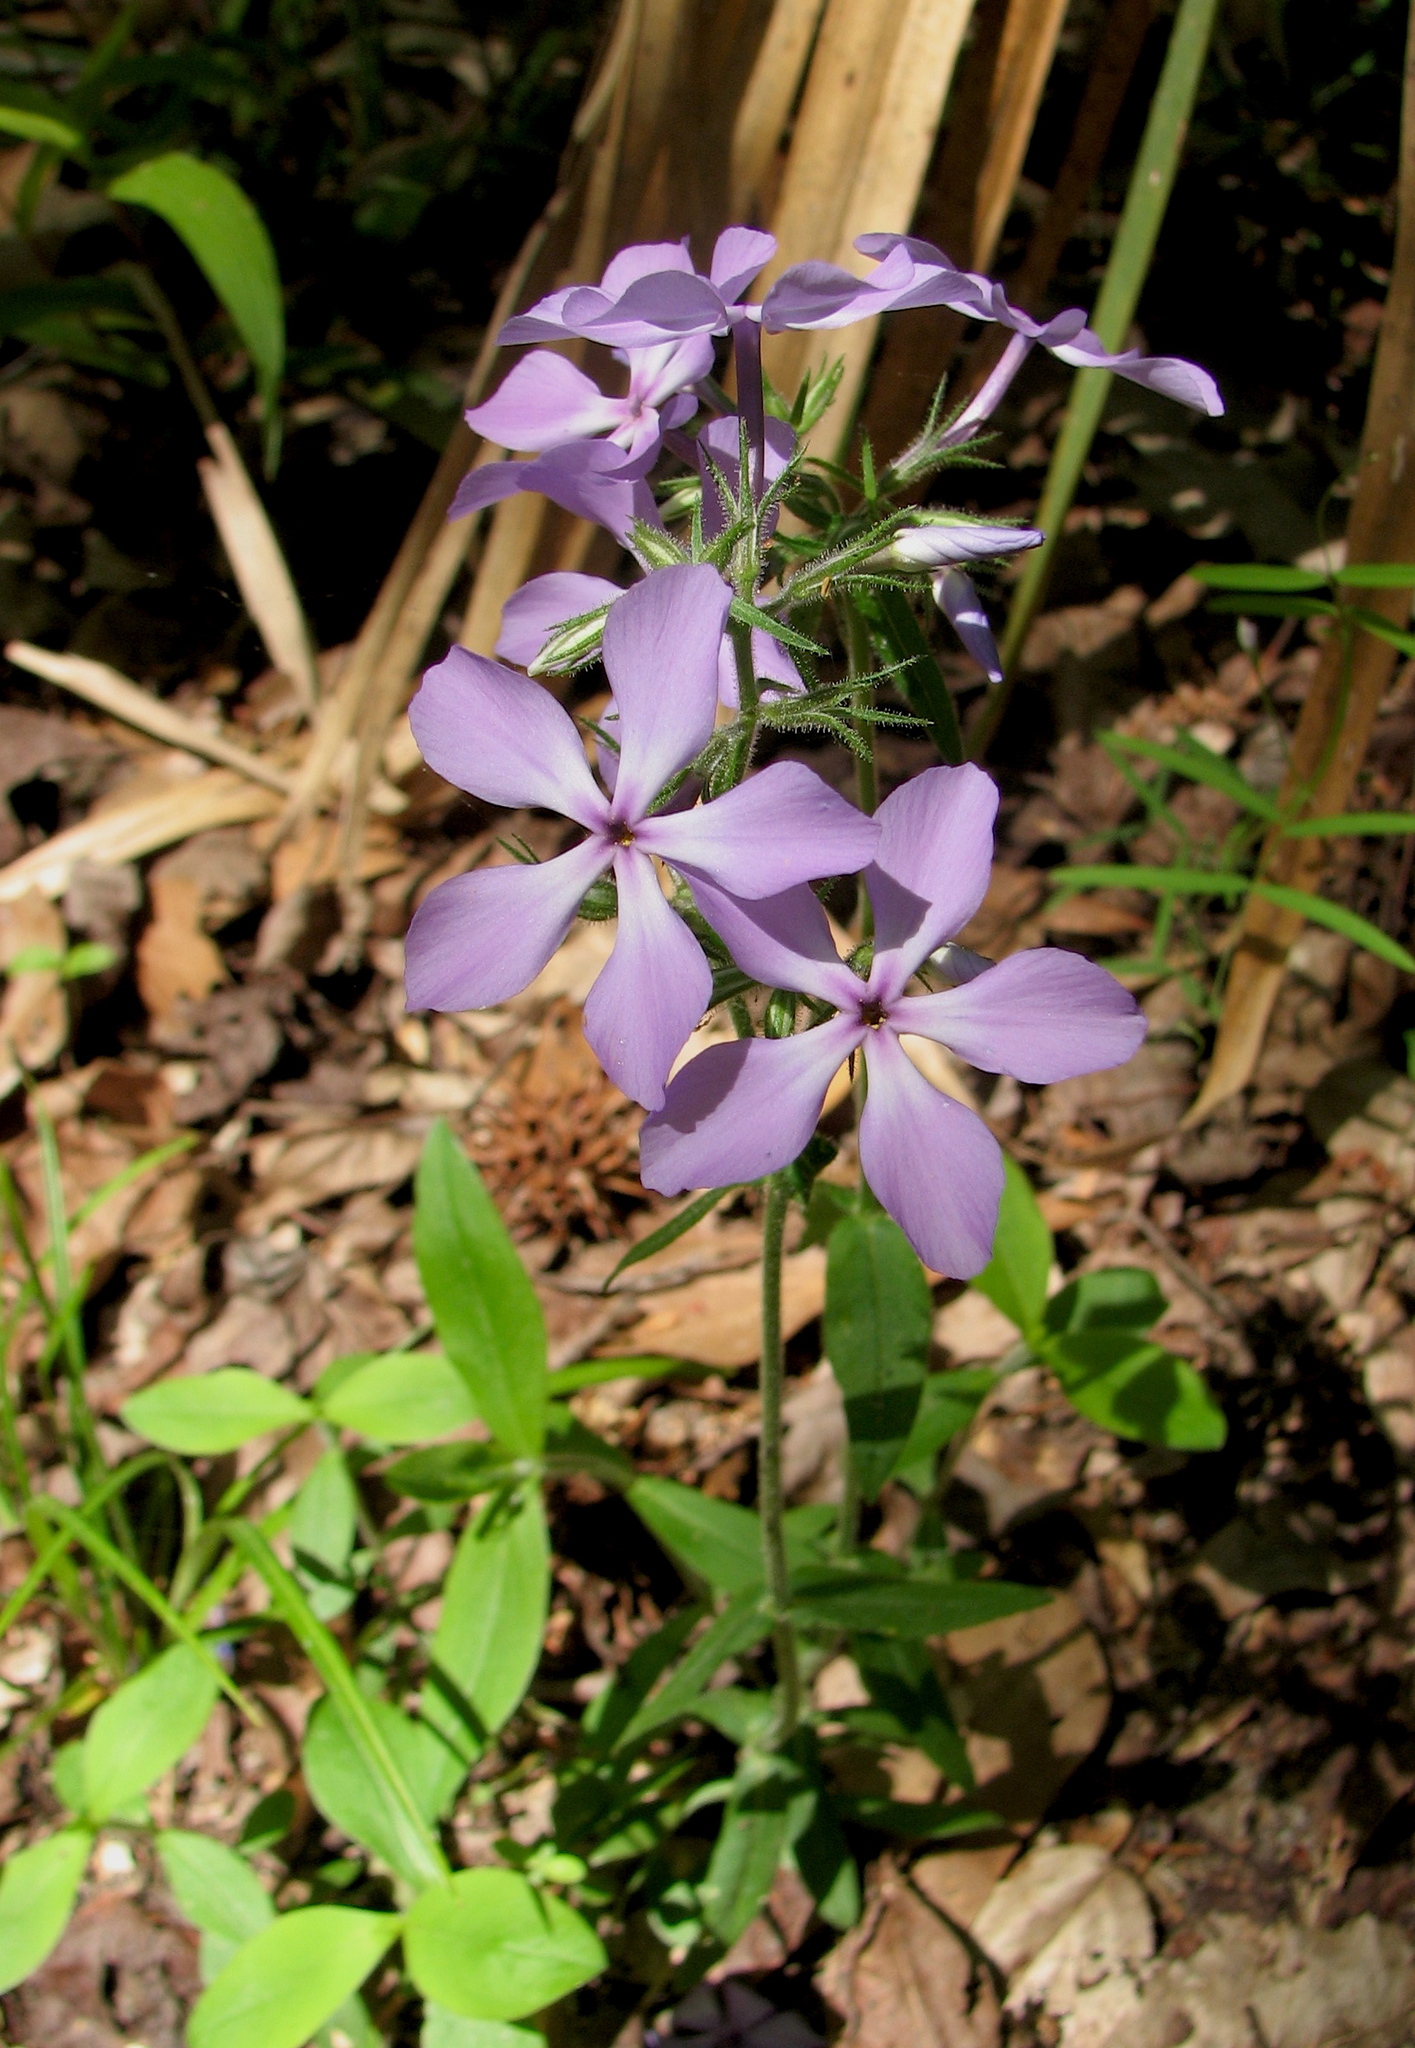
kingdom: Plantae
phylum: Tracheophyta
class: Magnoliopsida
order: Ericales
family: Polemoniaceae
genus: Phlox
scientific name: Phlox divaricata
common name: Blue phlox
